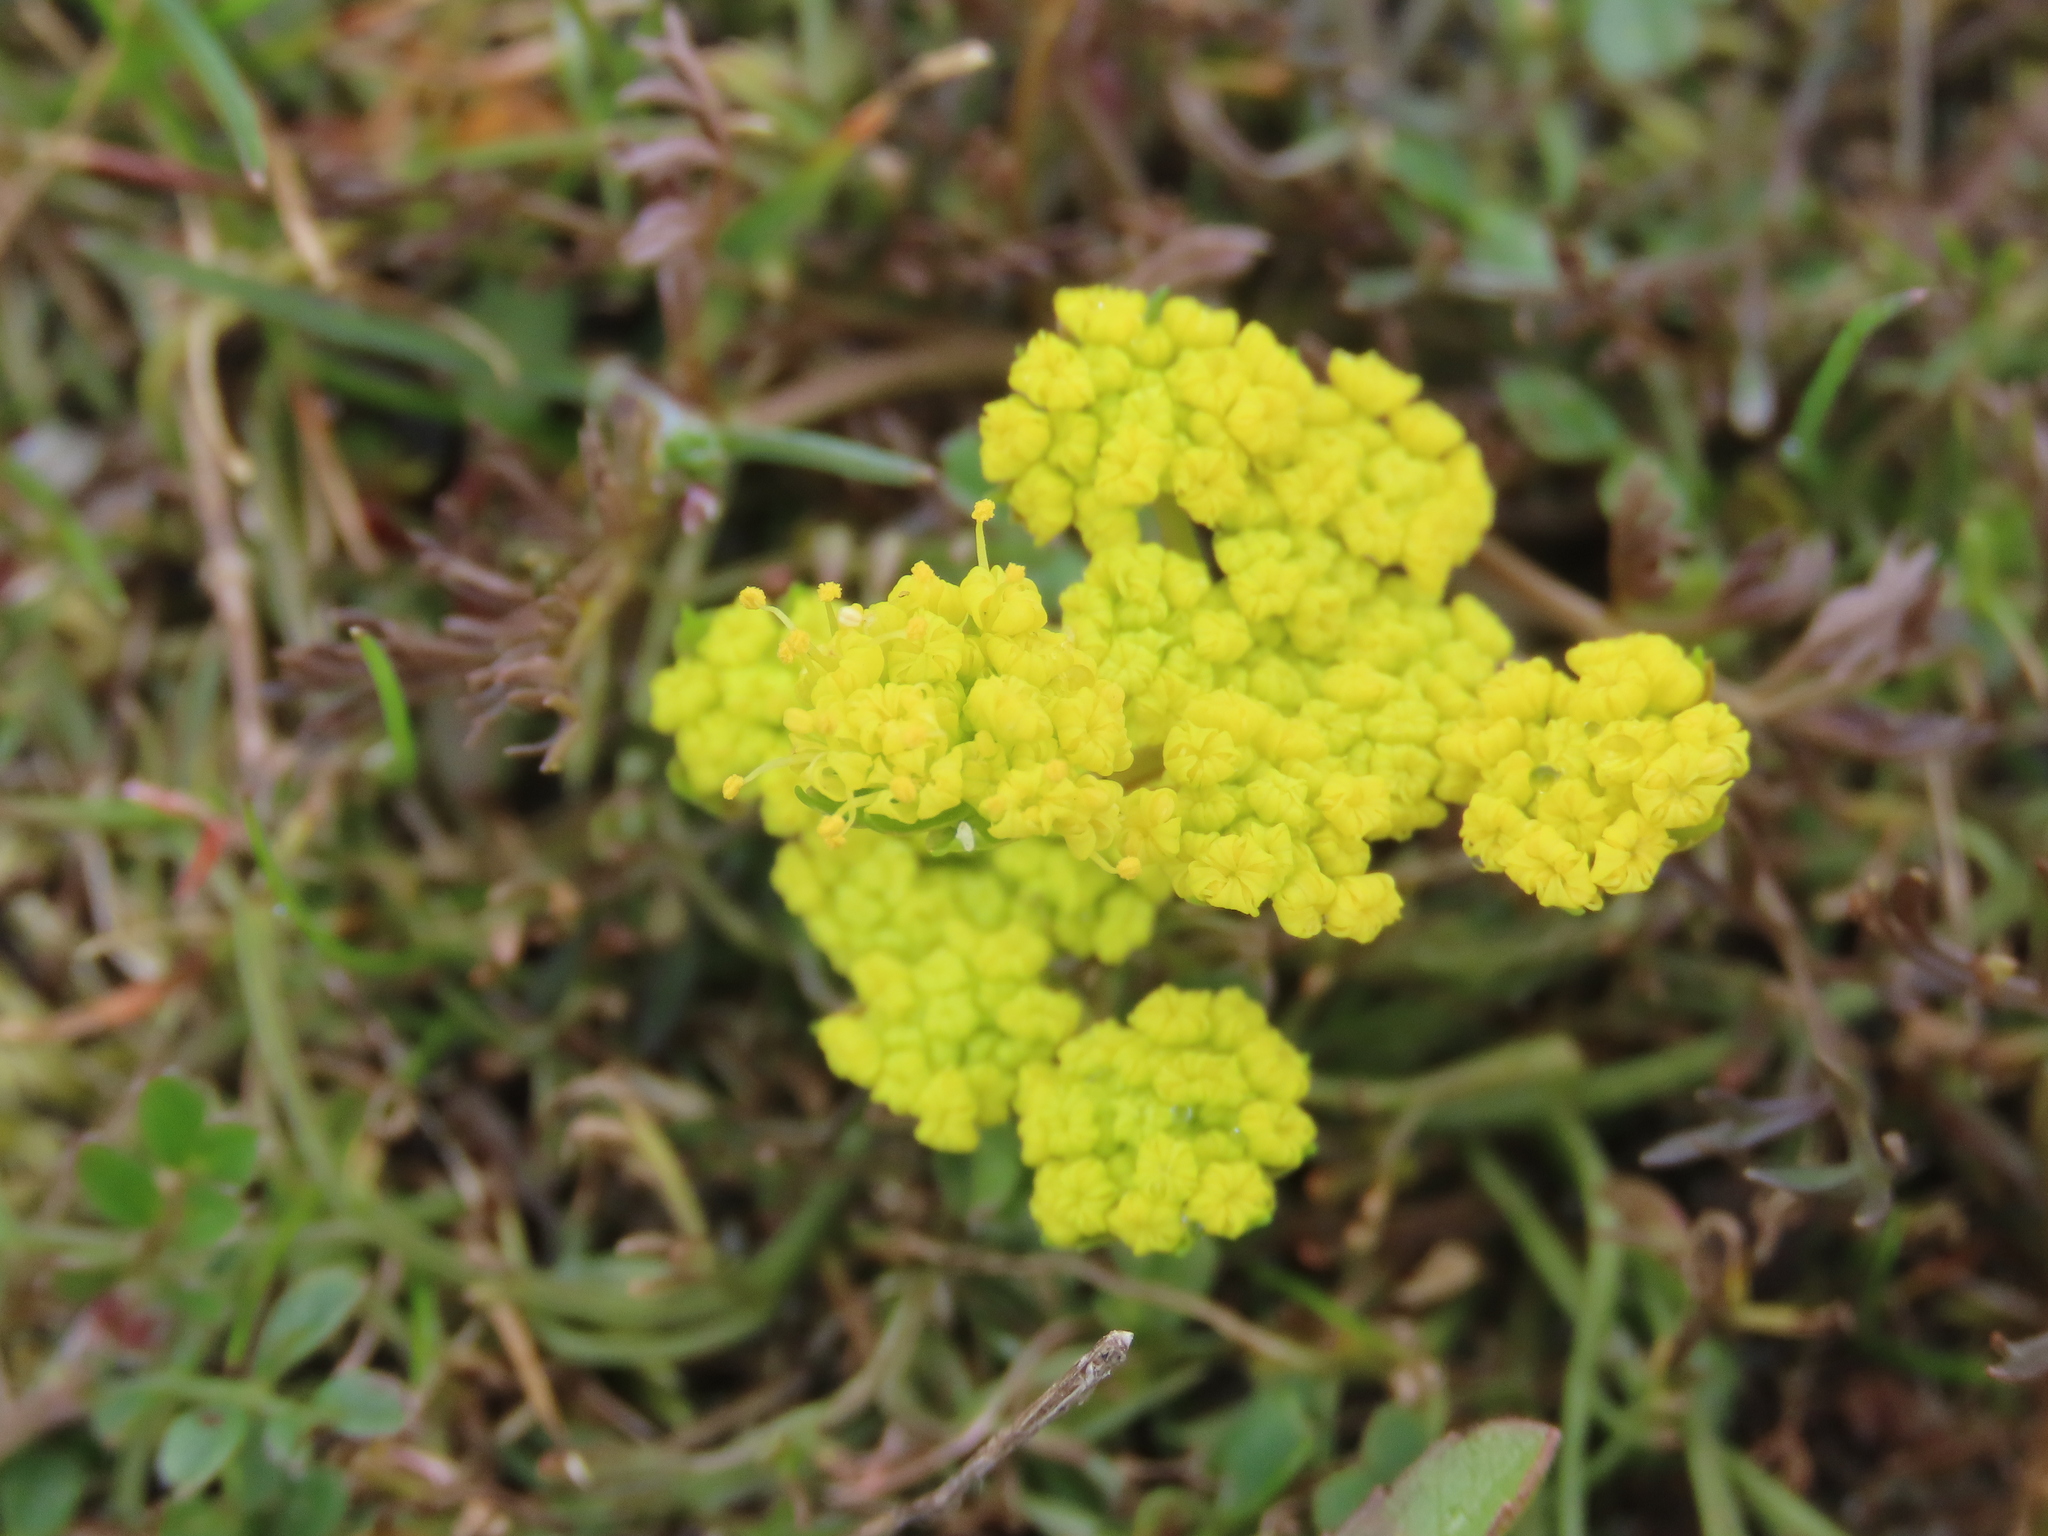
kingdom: Plantae
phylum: Tracheophyta
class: Magnoliopsida
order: Apiales
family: Apiaceae
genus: Lomatium
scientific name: Lomatium utriculatum
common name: Fine-leaf desert-parsley
